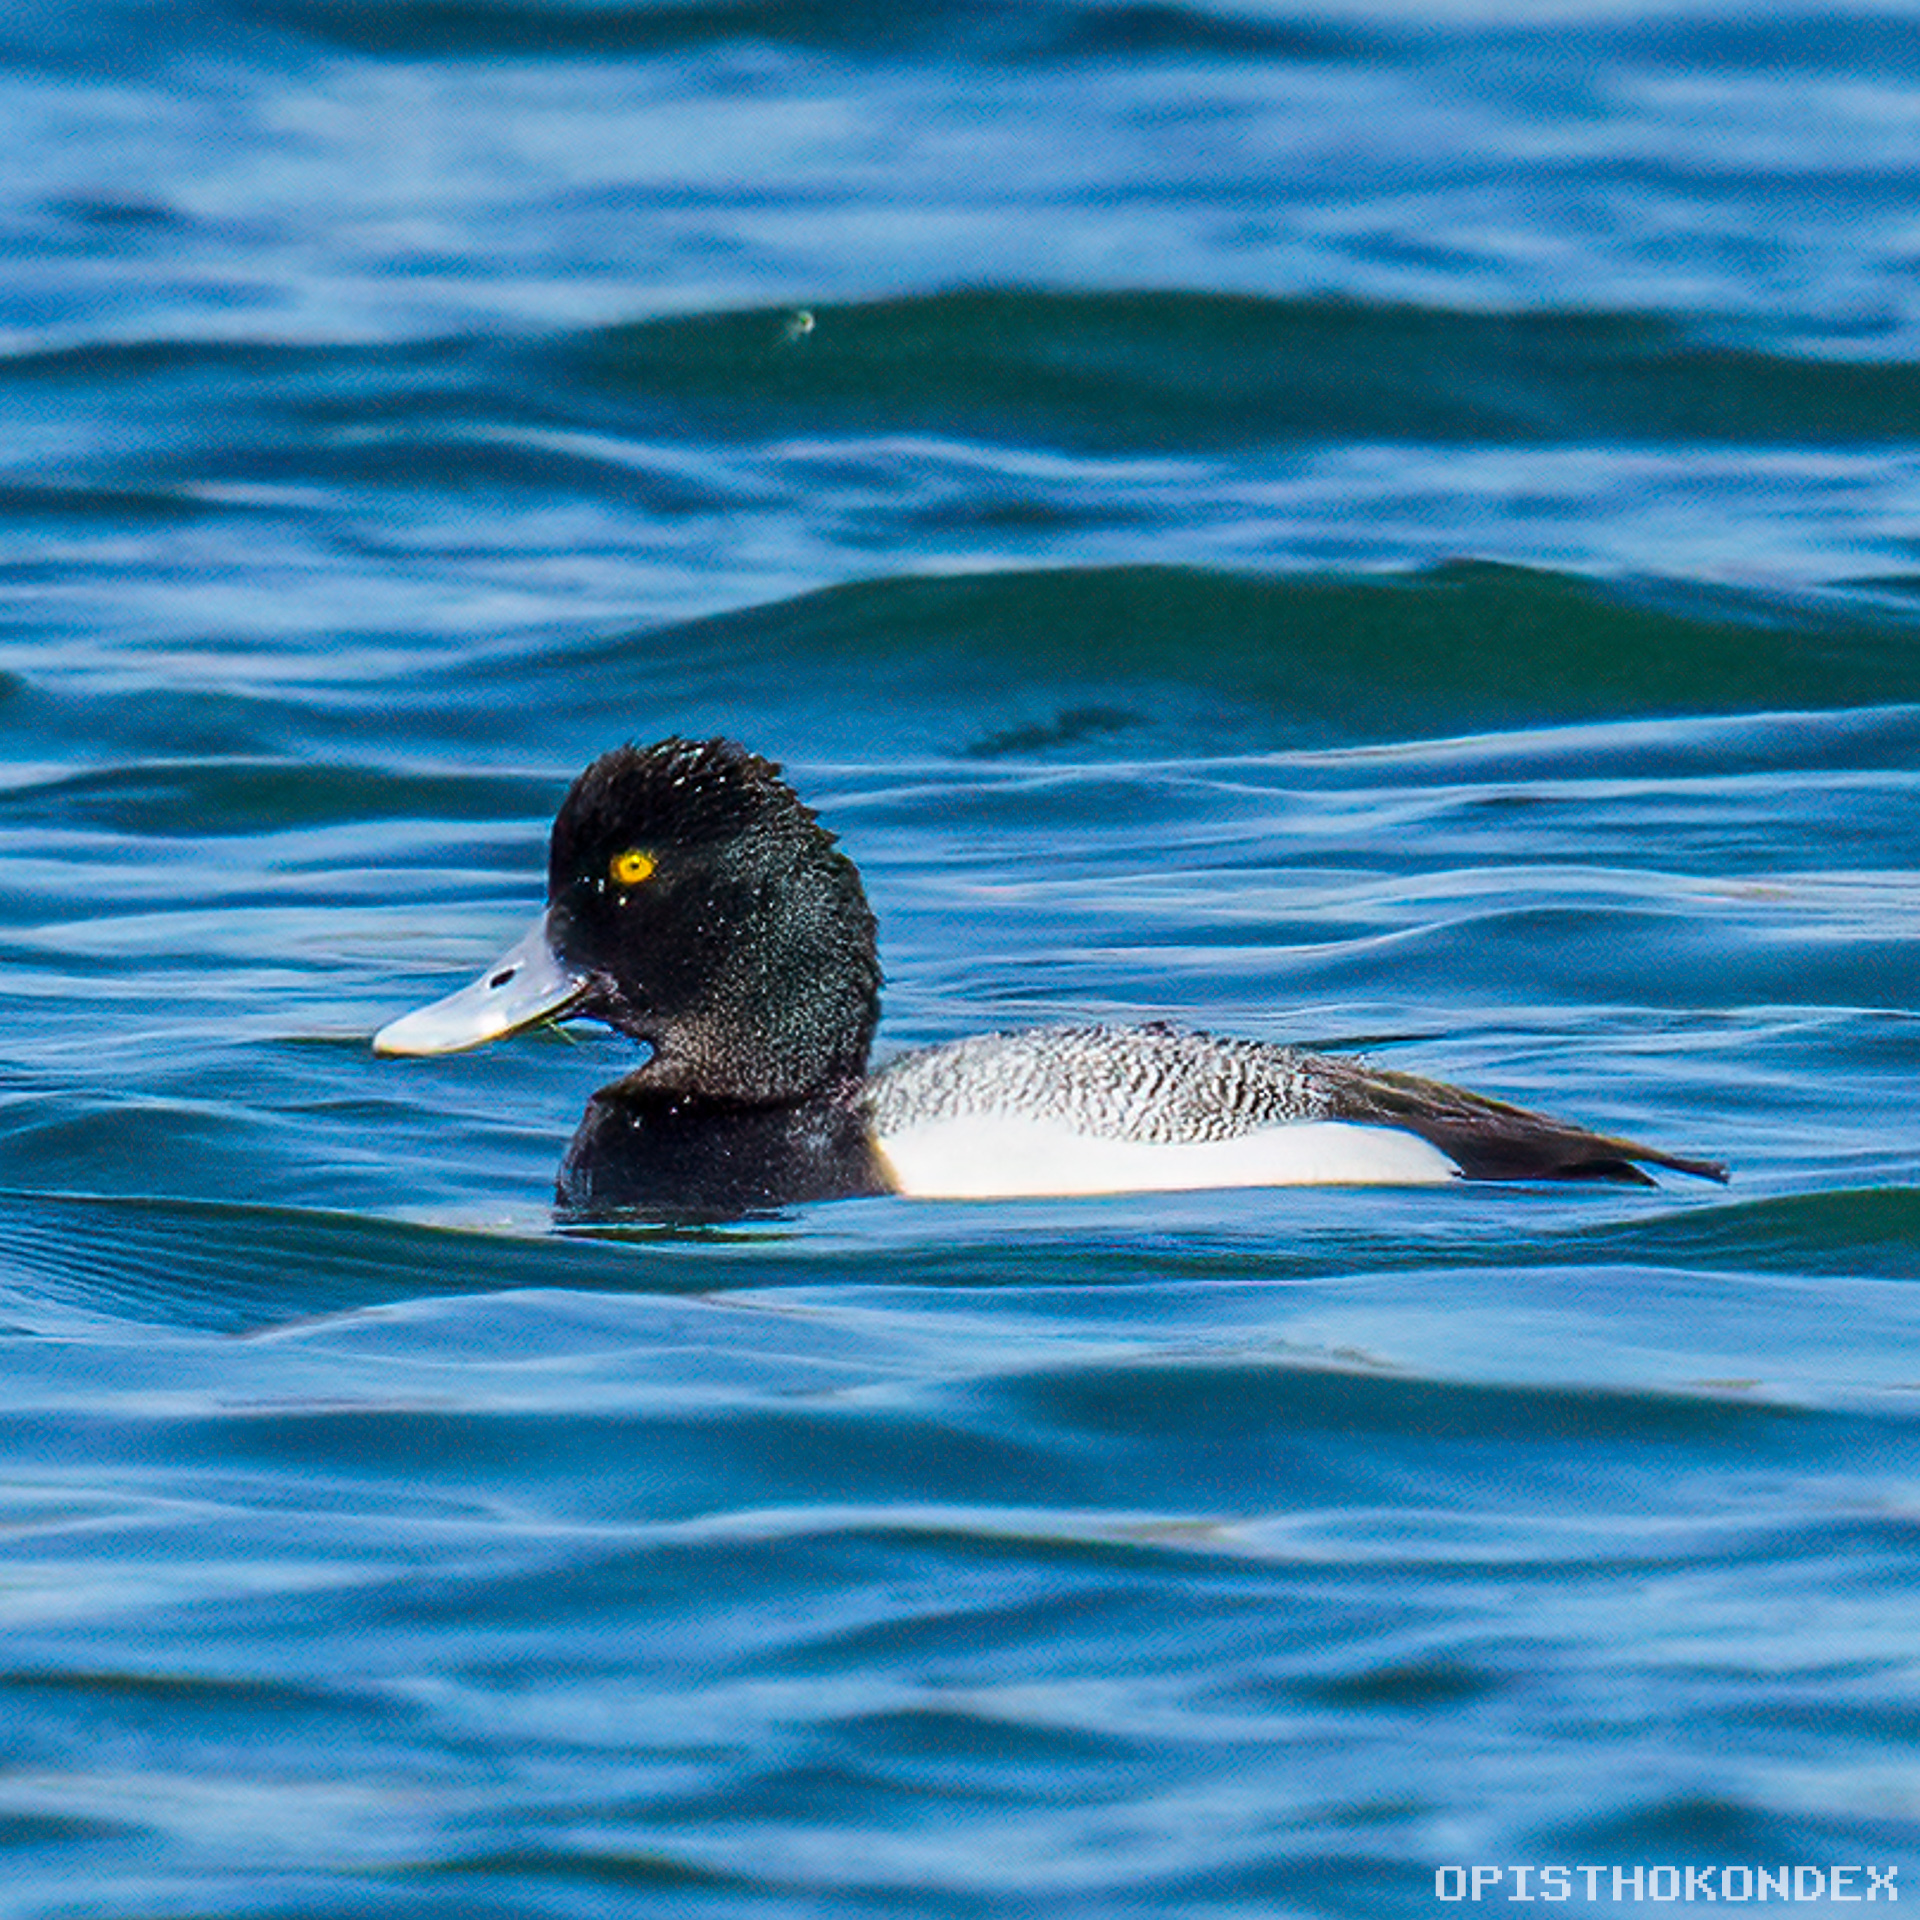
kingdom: Animalia
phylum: Chordata
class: Aves
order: Anseriformes
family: Anatidae
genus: Aythya
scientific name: Aythya affinis
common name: Lesser scaup
